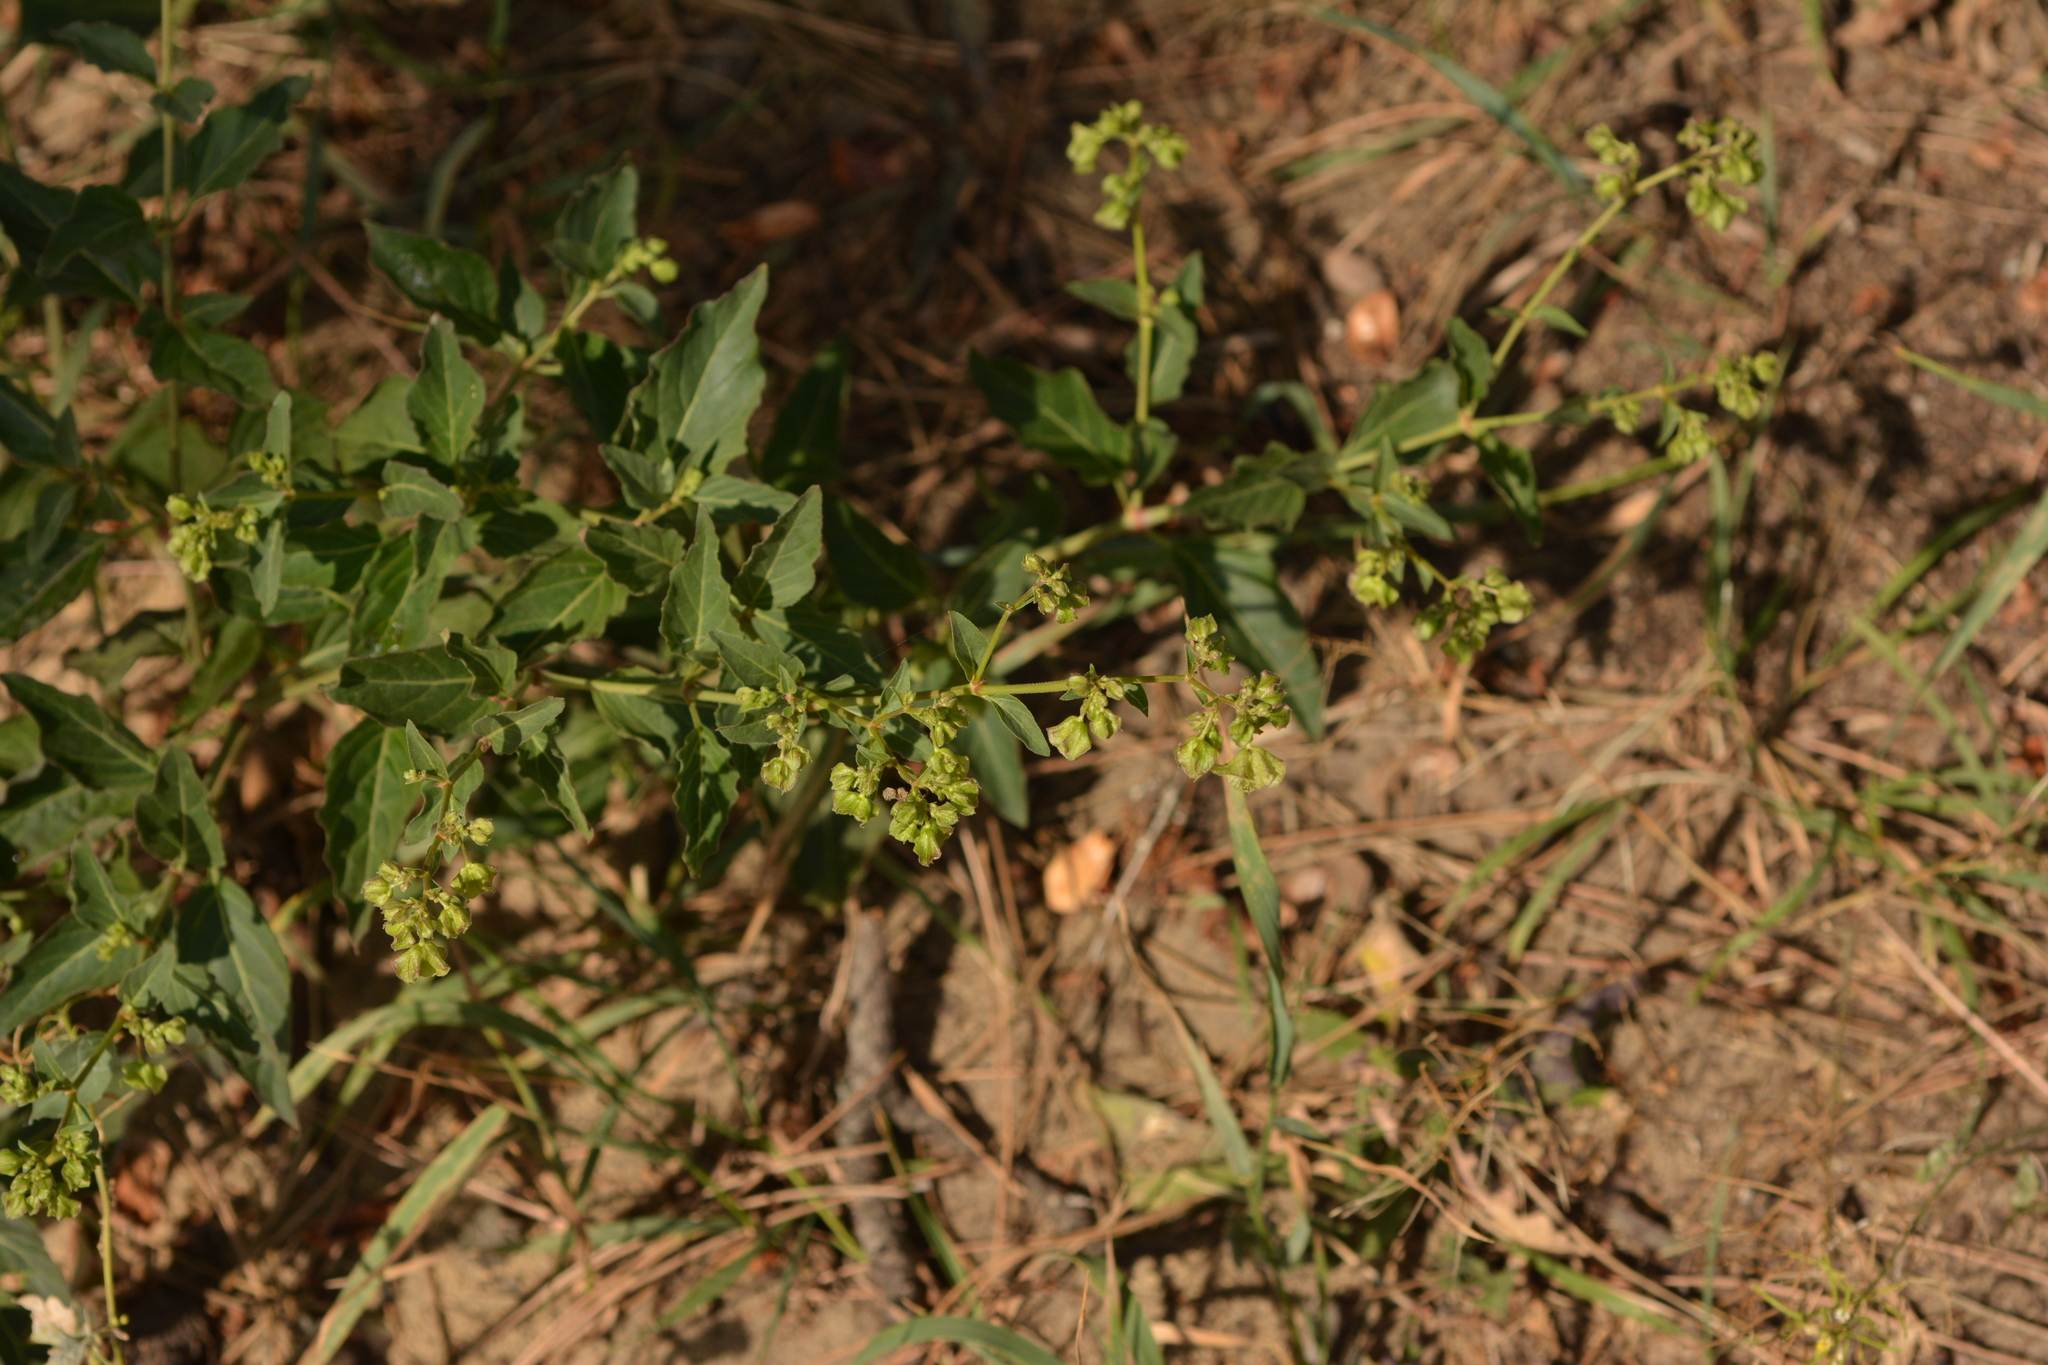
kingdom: Plantae
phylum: Tracheophyta
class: Magnoliopsida
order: Caryophyllales
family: Nyctaginaceae
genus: Mirabilis
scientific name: Mirabilis nyctaginea
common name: Umbrella wort
